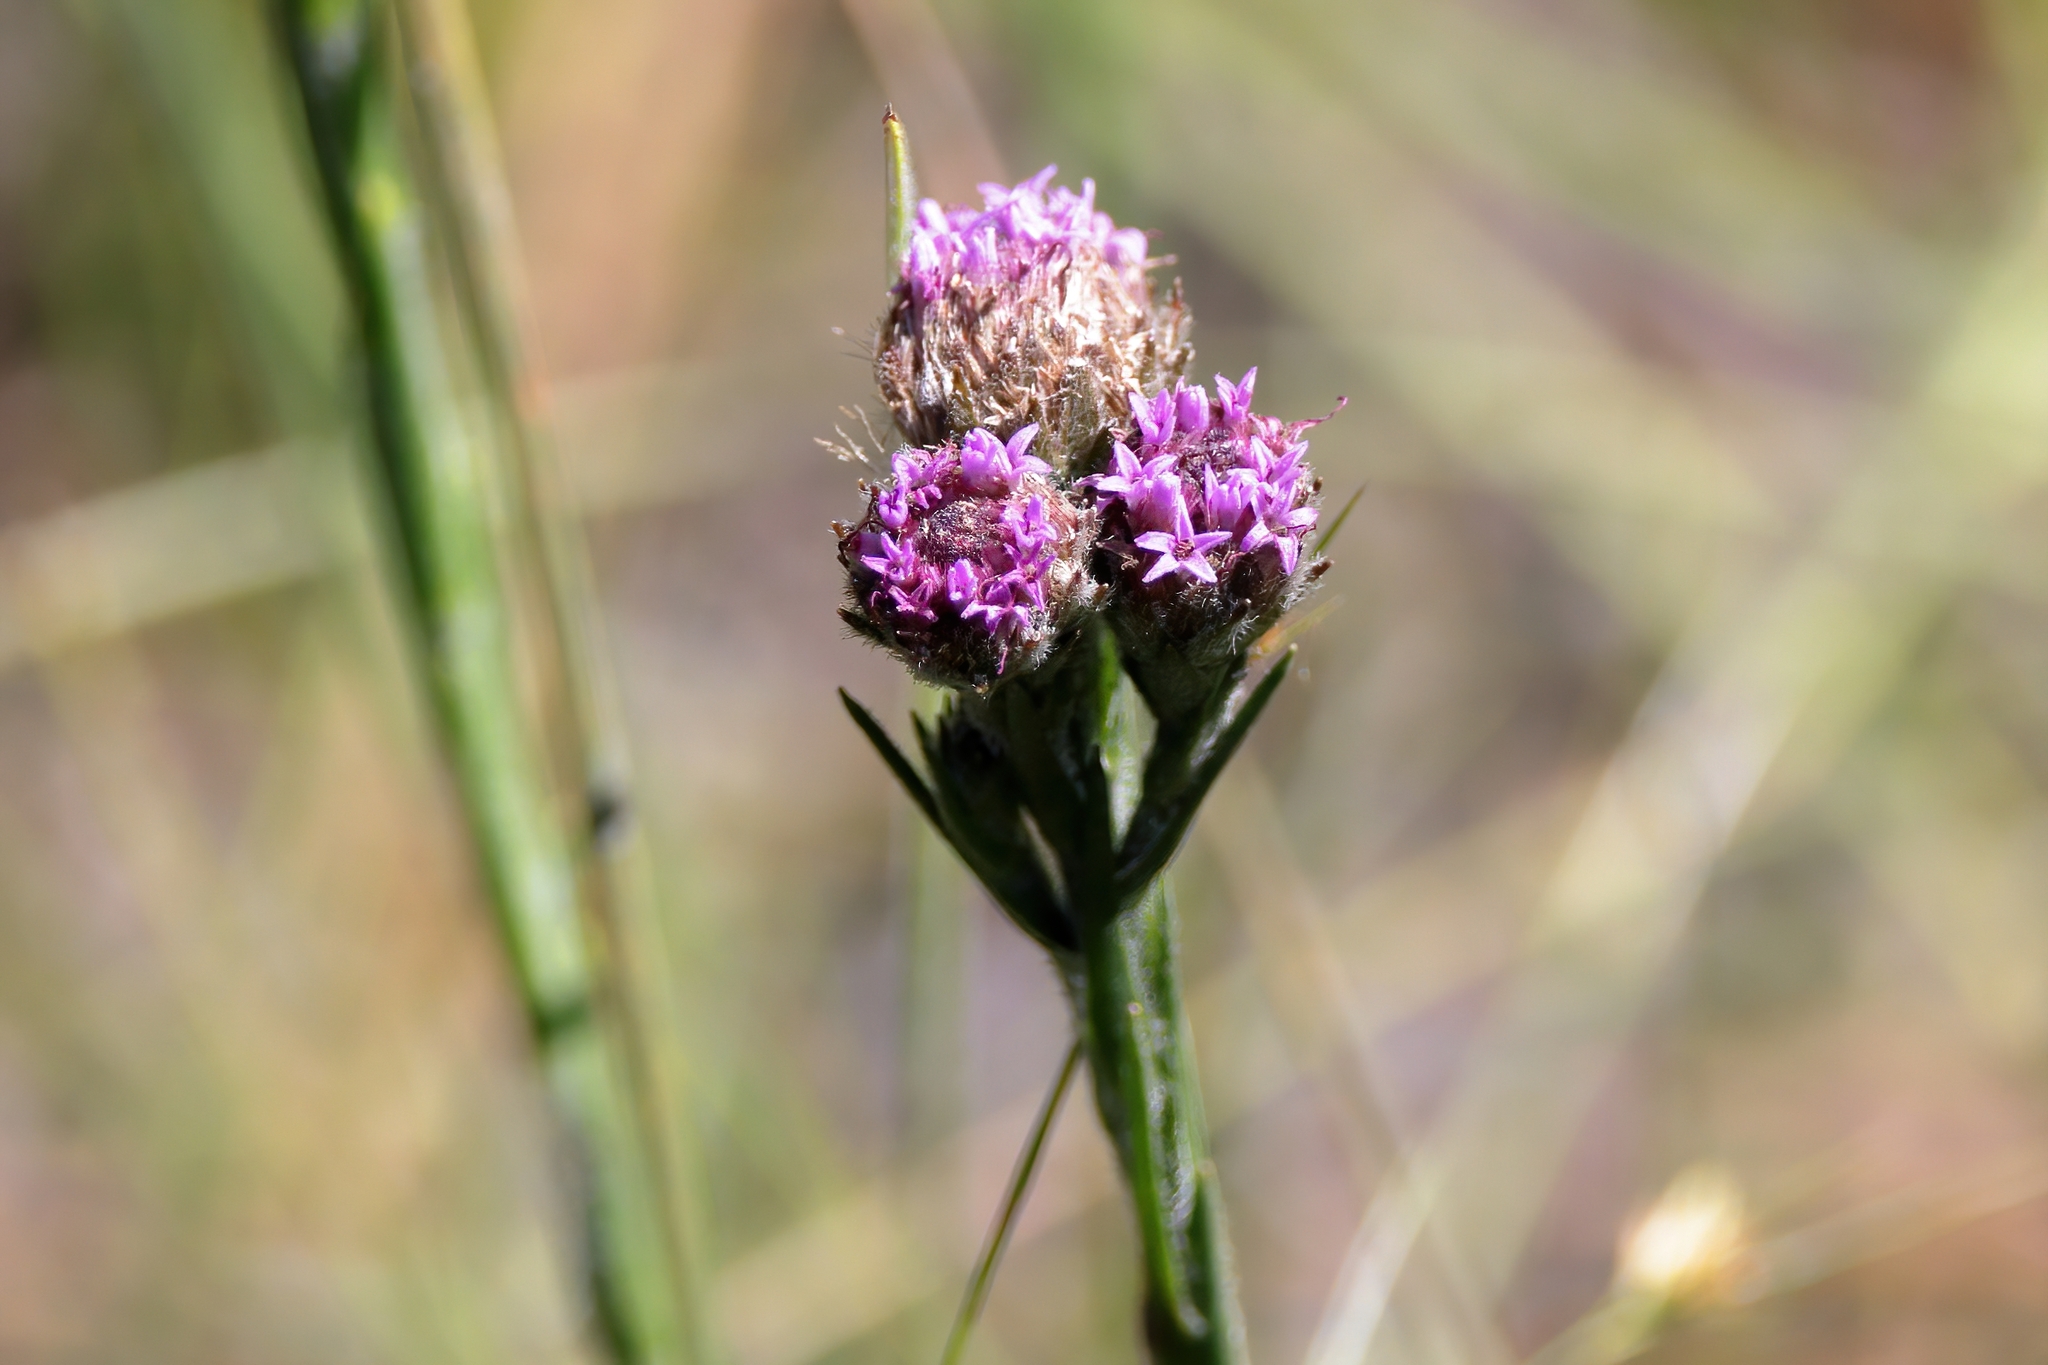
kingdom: Plantae
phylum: Tracheophyta
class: Magnoliopsida
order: Asterales
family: Asteraceae
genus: Carphephorus
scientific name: Carphephorus pseudoliatris
